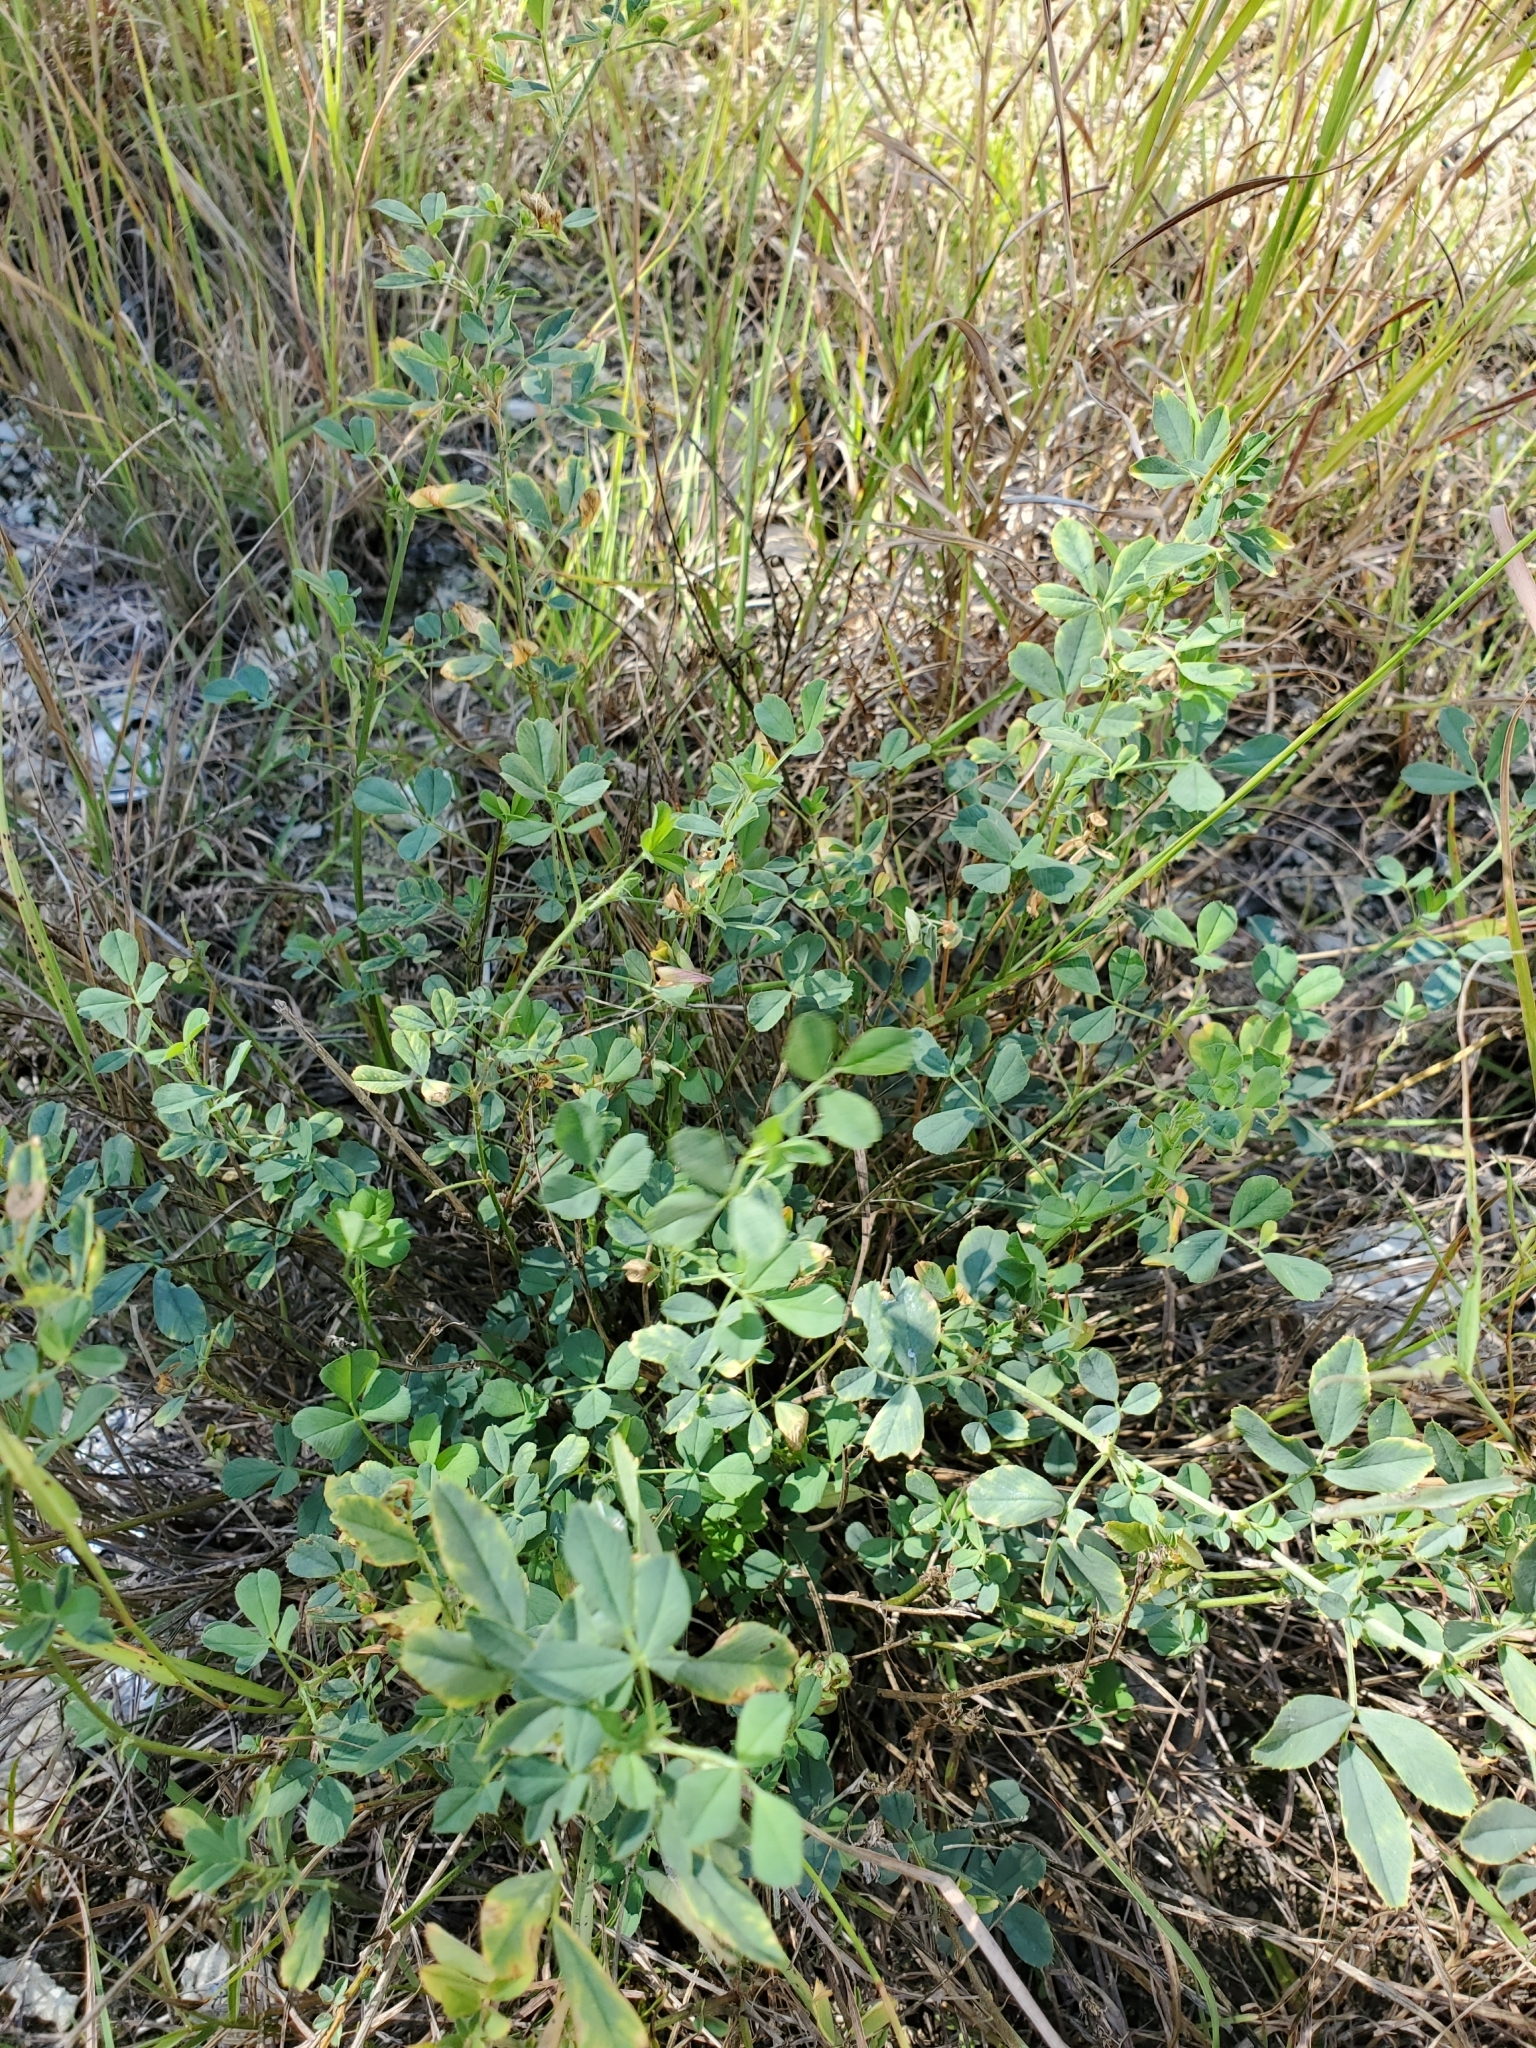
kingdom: Plantae
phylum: Tracheophyta
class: Magnoliopsida
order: Fabales
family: Fabaceae
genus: Melilotus
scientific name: Melilotus albus
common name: White melilot
